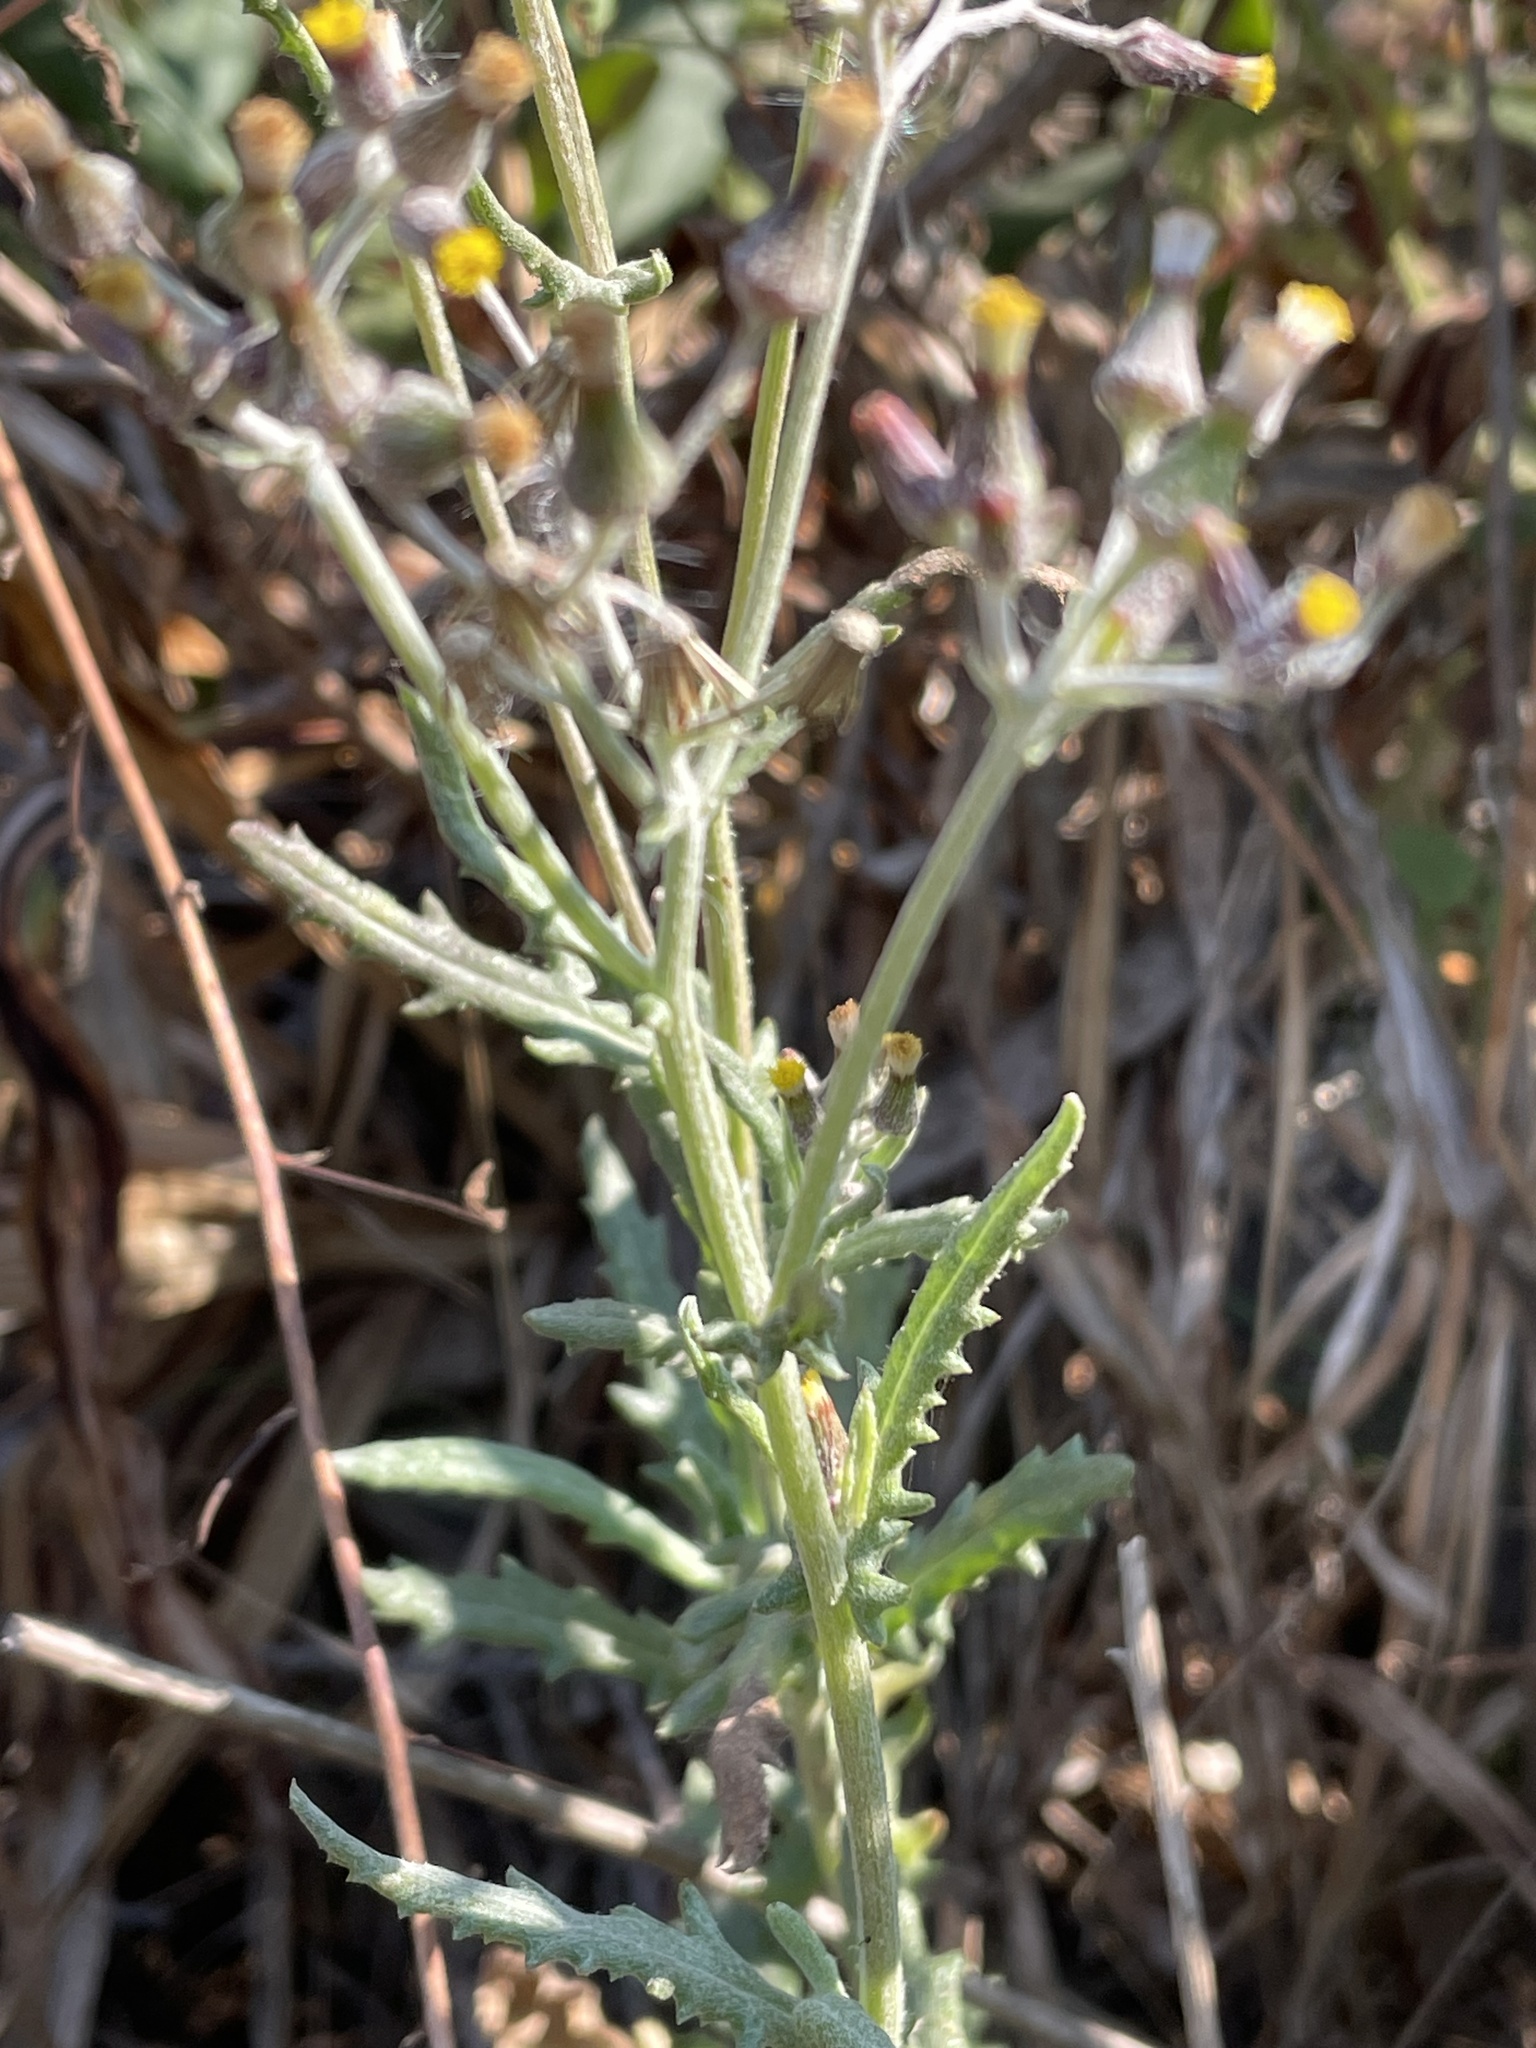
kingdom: Plantae
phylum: Tracheophyta
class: Magnoliopsida
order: Asterales
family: Asteraceae
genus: Senecio
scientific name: Senecio glomeratus
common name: Cutleaf burnweed
